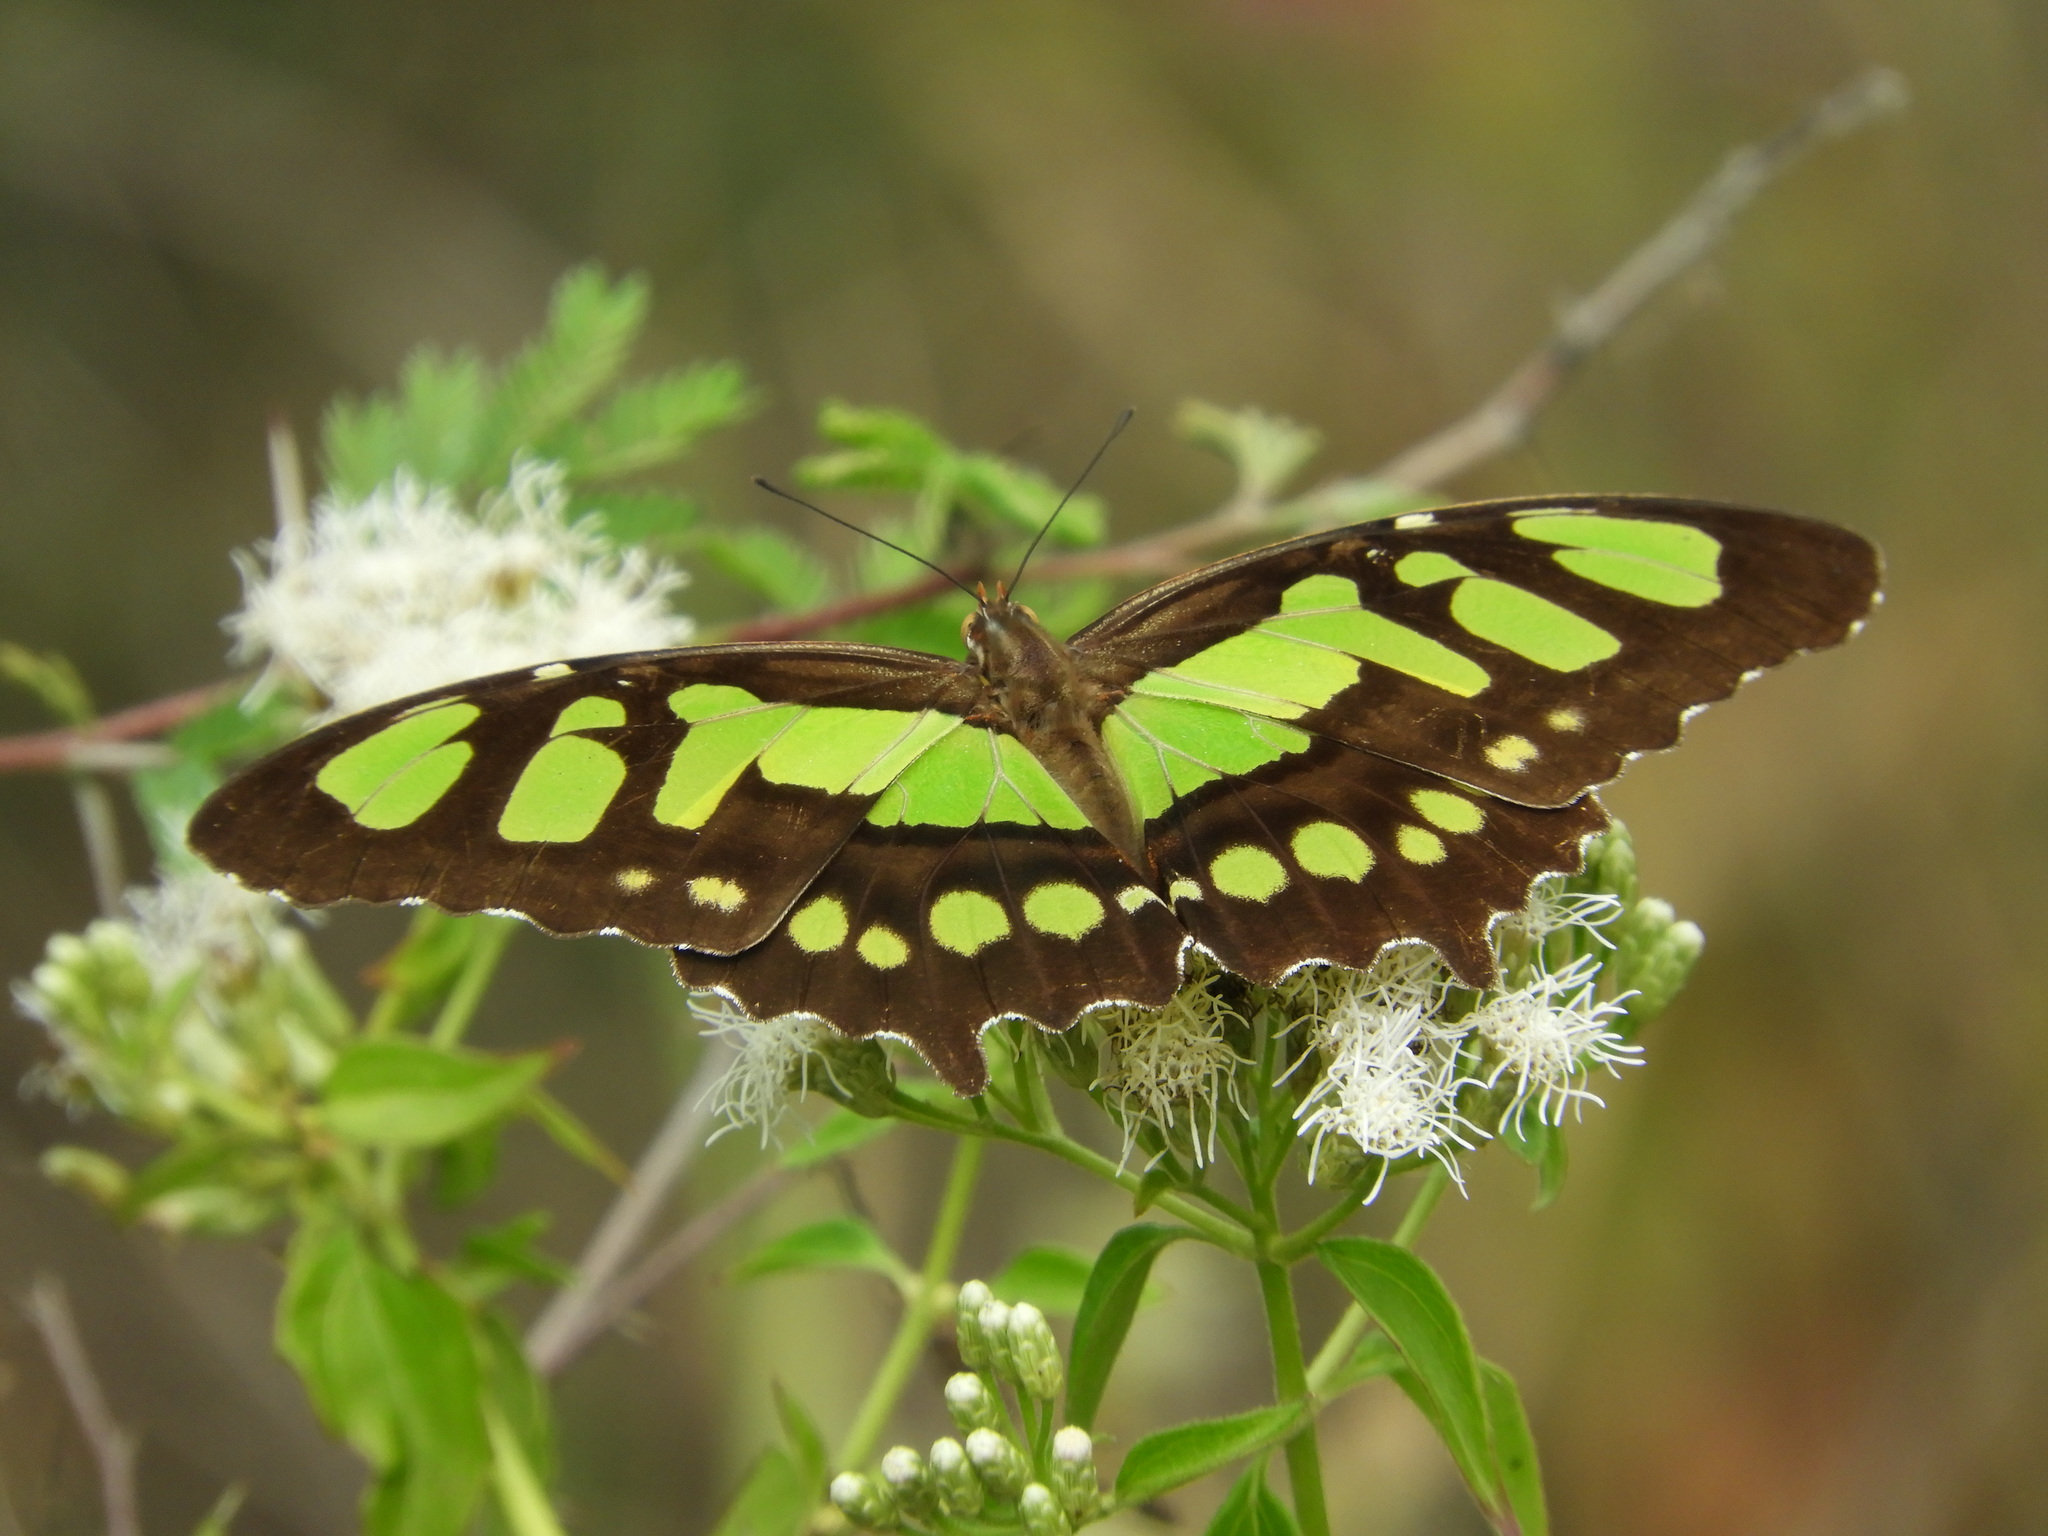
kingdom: Animalia
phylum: Arthropoda
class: Insecta
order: Lepidoptera
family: Nymphalidae
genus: Siproeta
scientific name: Siproeta stelenes
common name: Malachite
